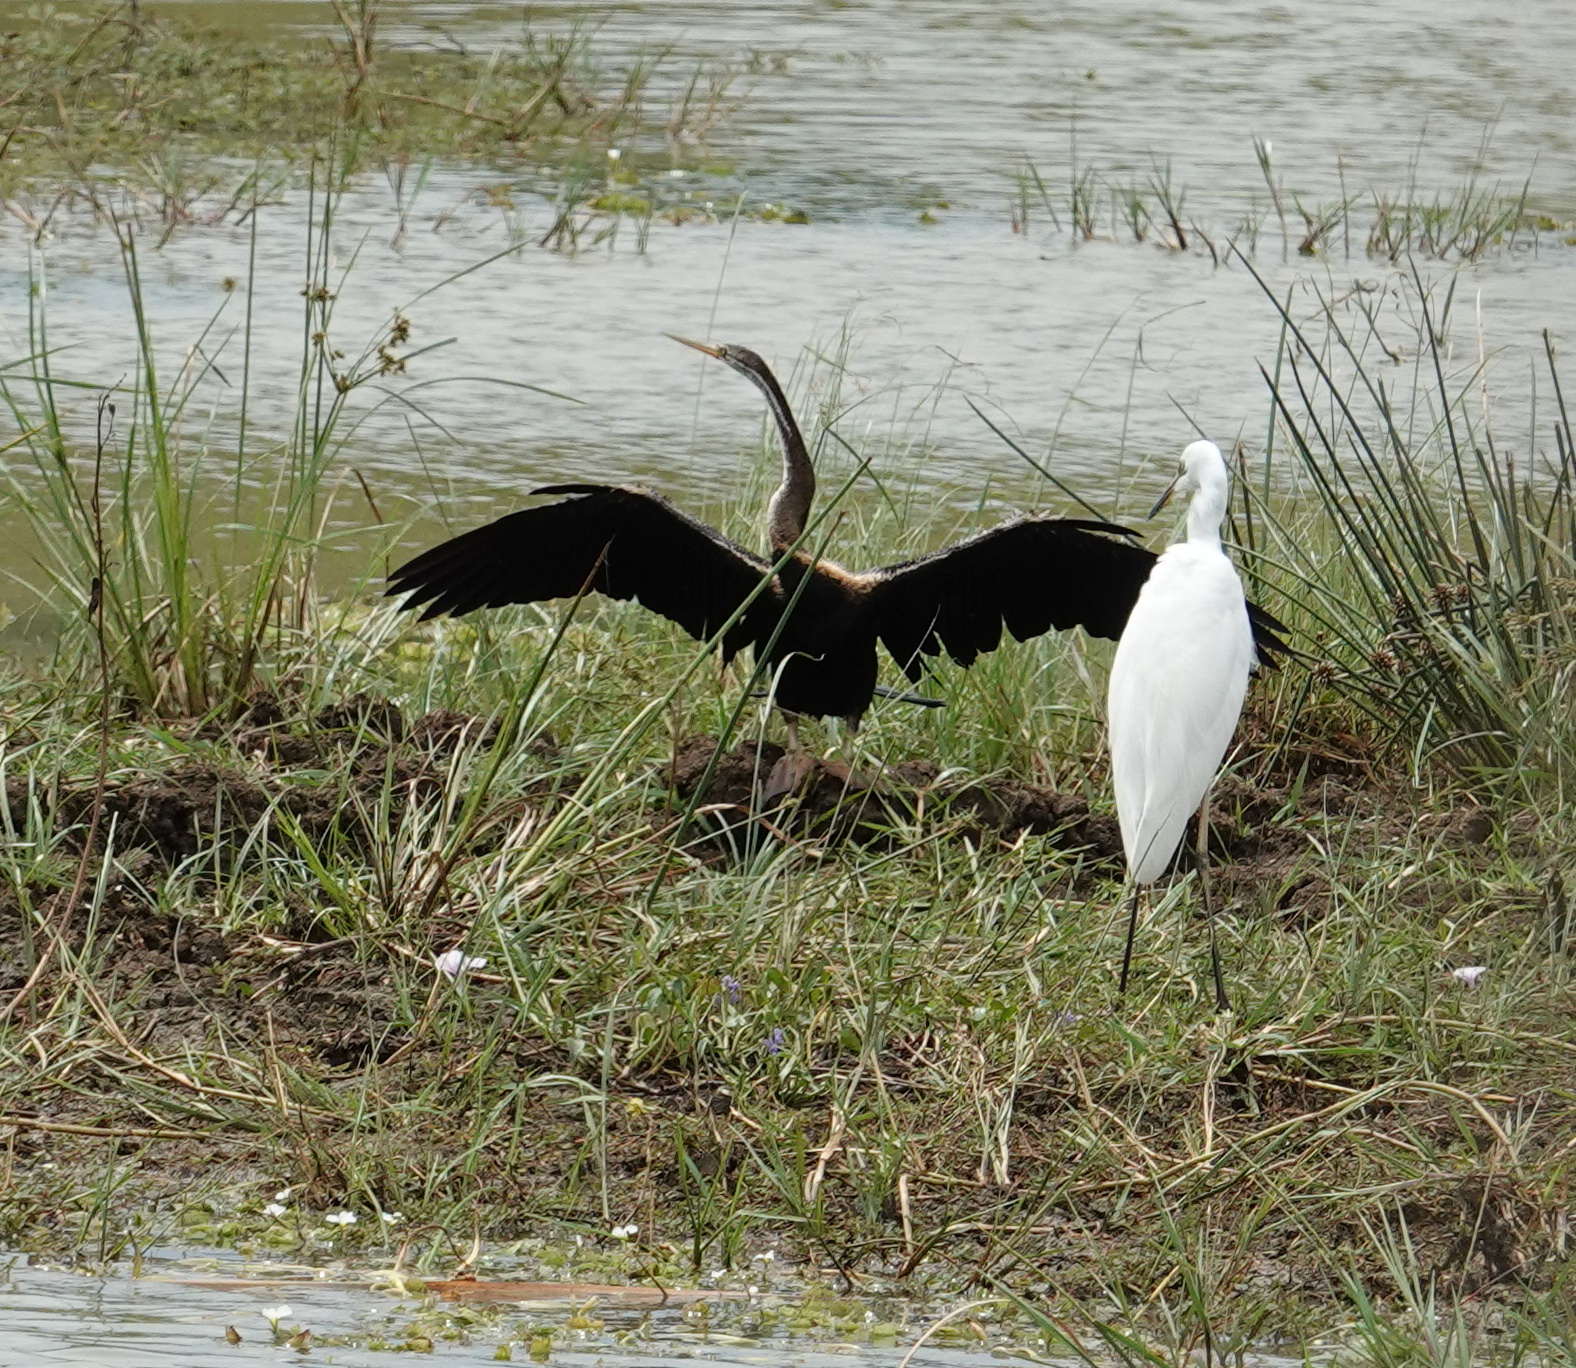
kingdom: Animalia
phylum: Chordata
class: Aves
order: Suliformes
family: Anhingidae
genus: Anhinga
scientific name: Anhinga melanogaster
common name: Oriental darter
